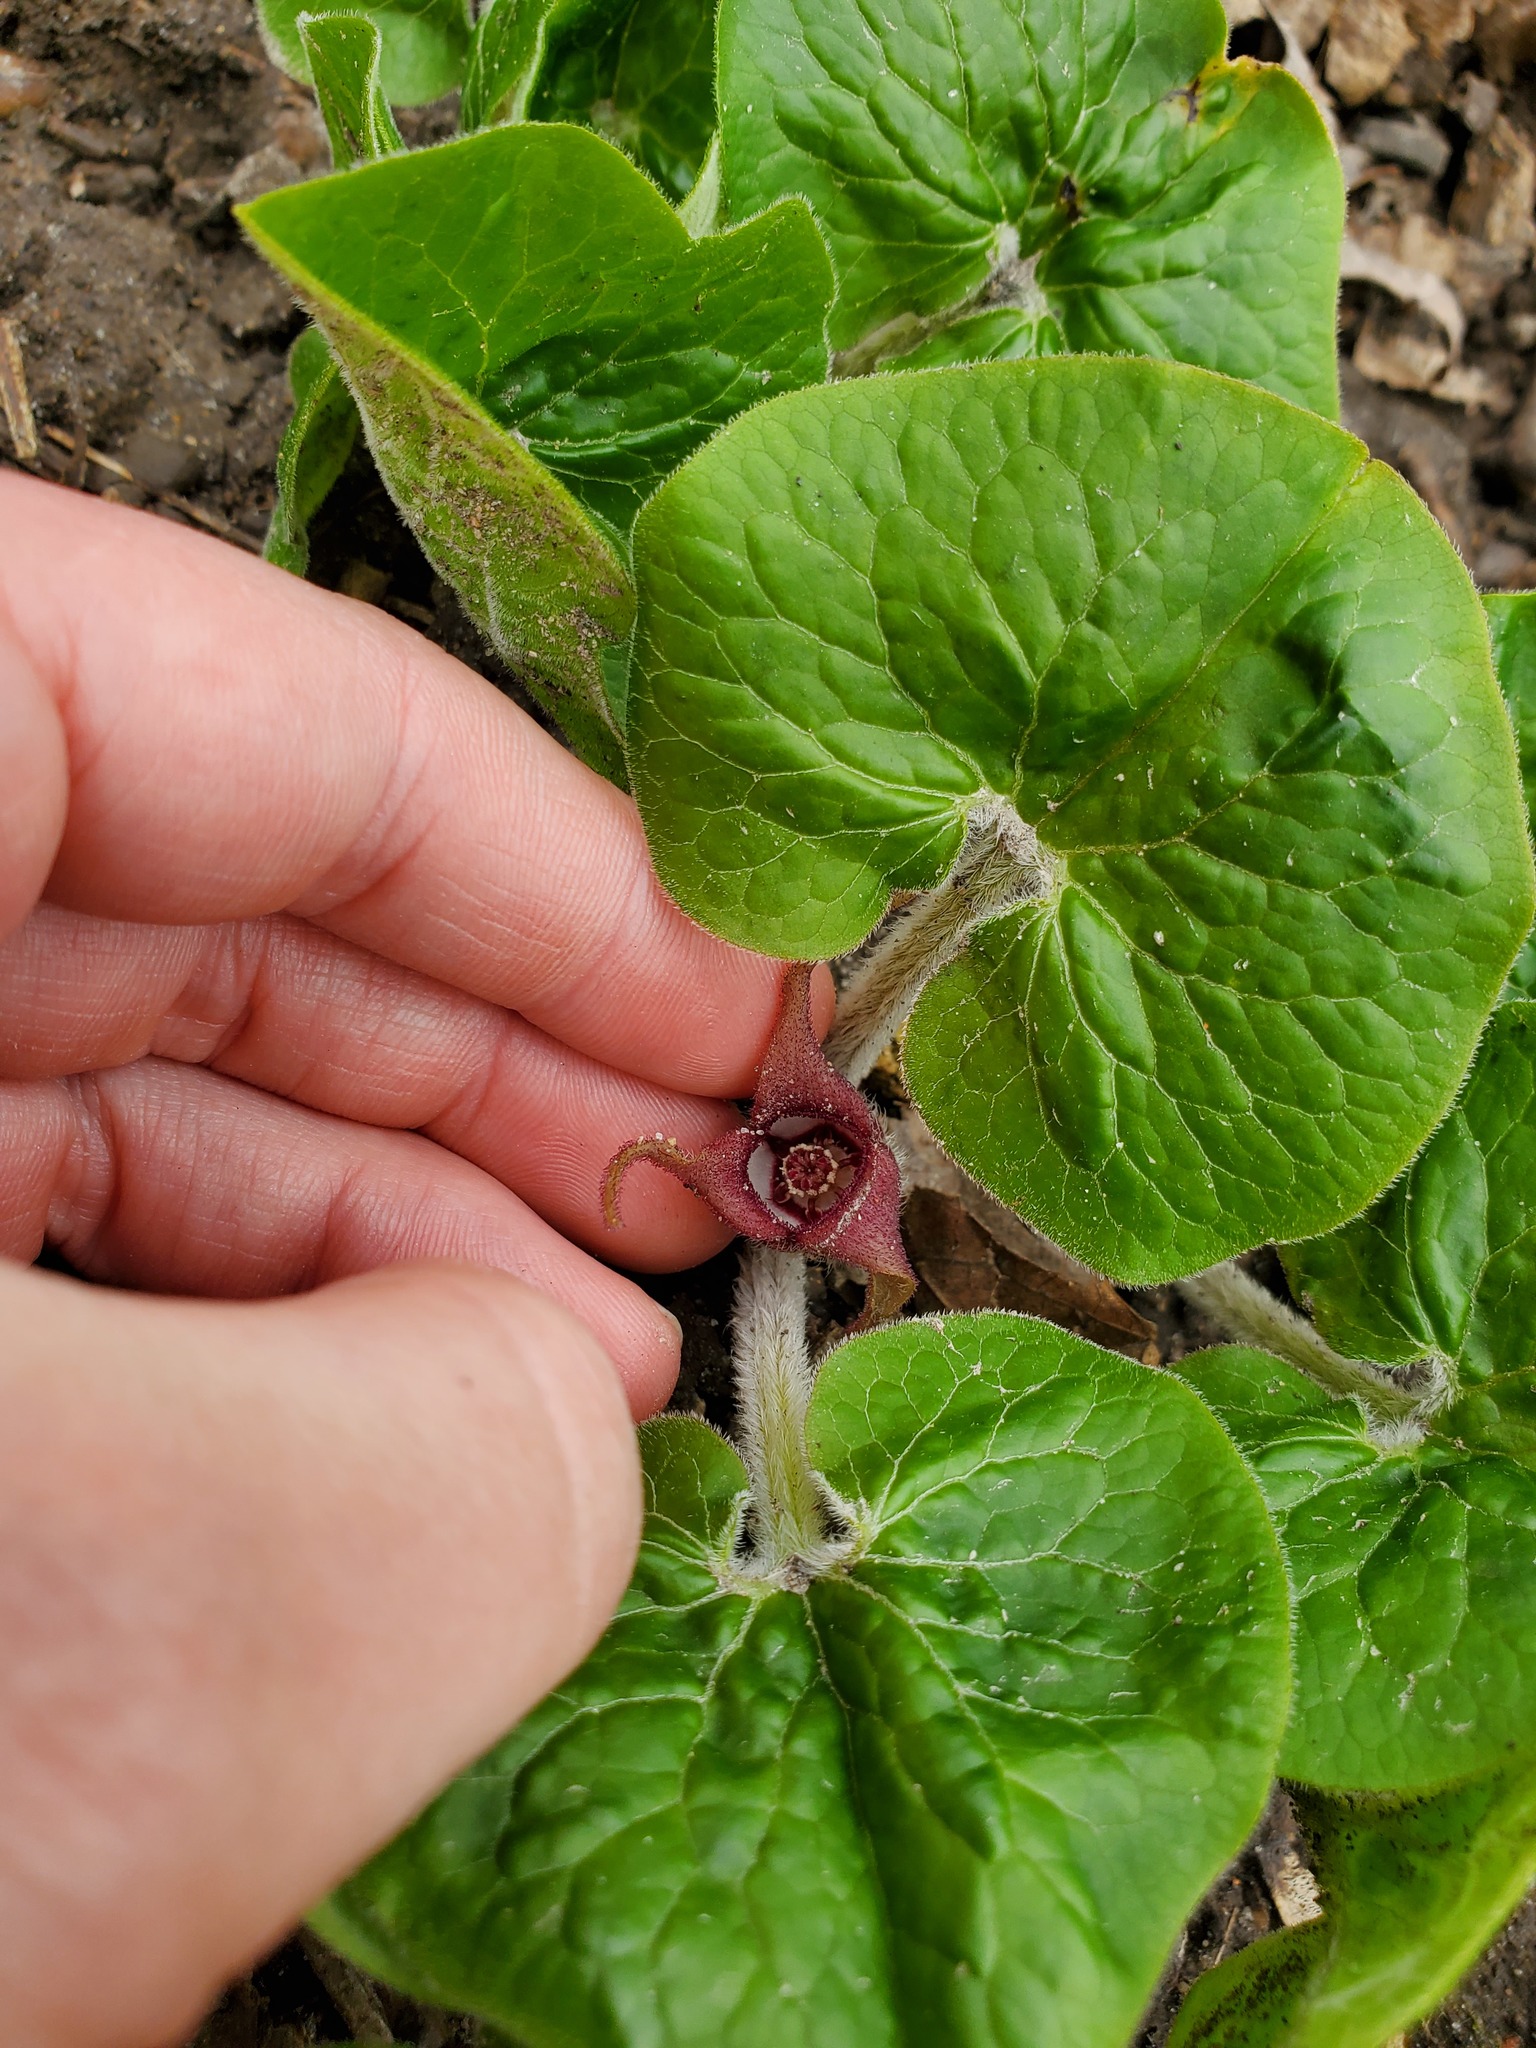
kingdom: Plantae
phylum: Tracheophyta
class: Magnoliopsida
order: Piperales
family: Aristolochiaceae
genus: Asarum
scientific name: Asarum canadense
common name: Wild ginger
